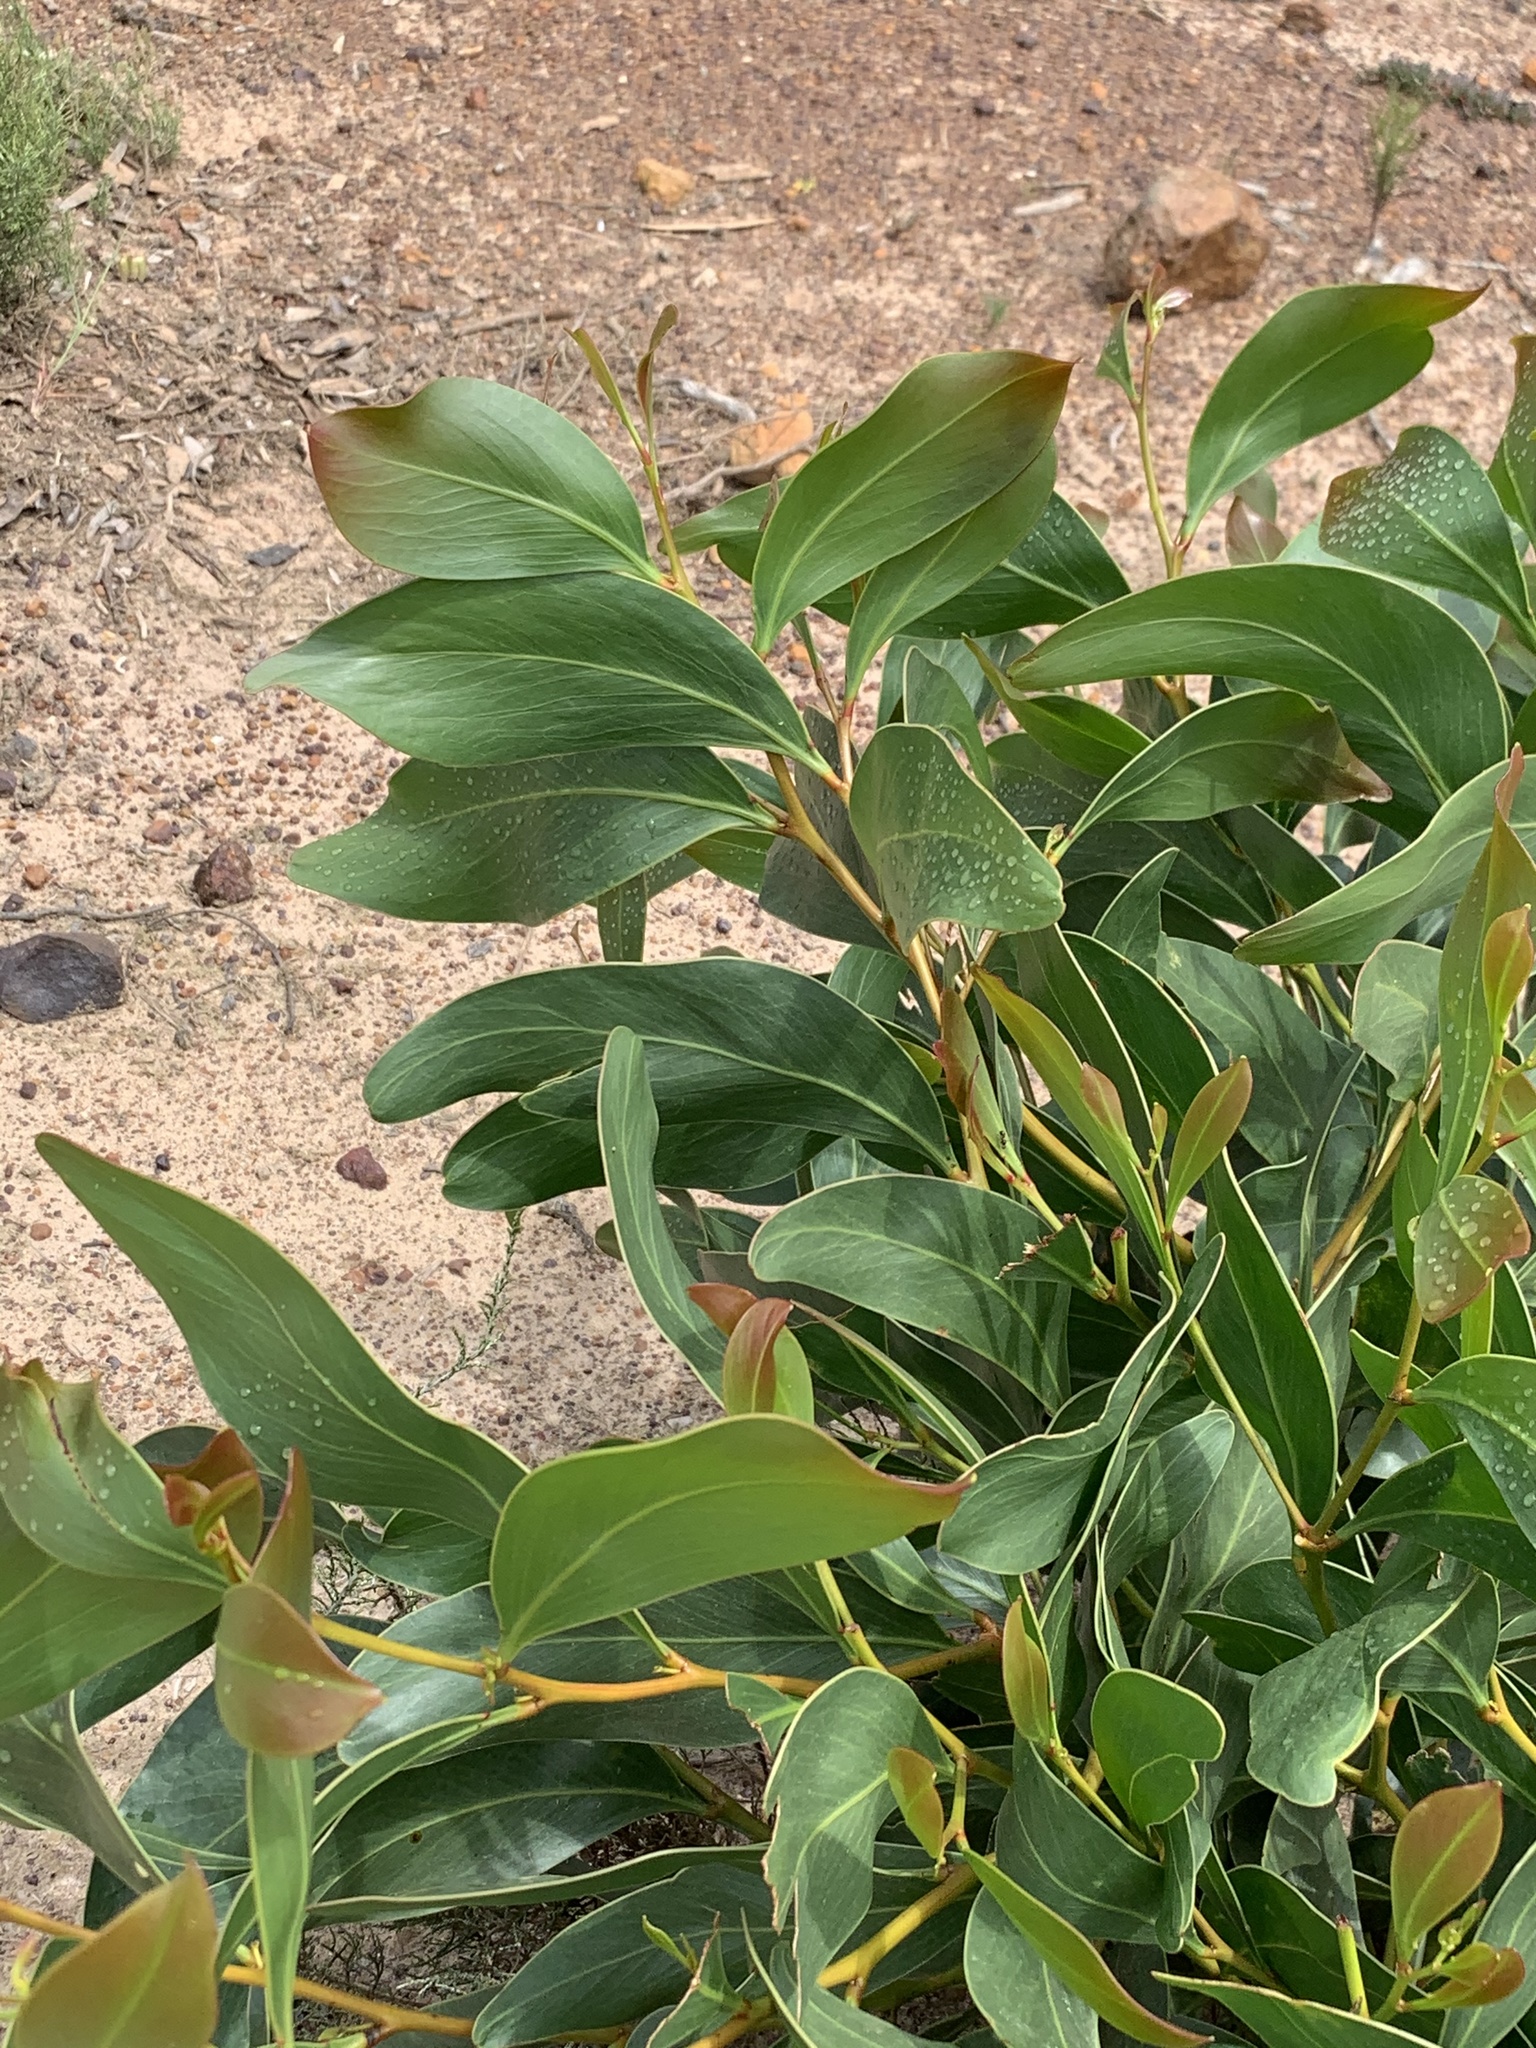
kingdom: Plantae
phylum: Tracheophyta
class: Magnoliopsida
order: Fabales
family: Fabaceae
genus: Acacia
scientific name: Acacia pycnantha
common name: Golden wattle
